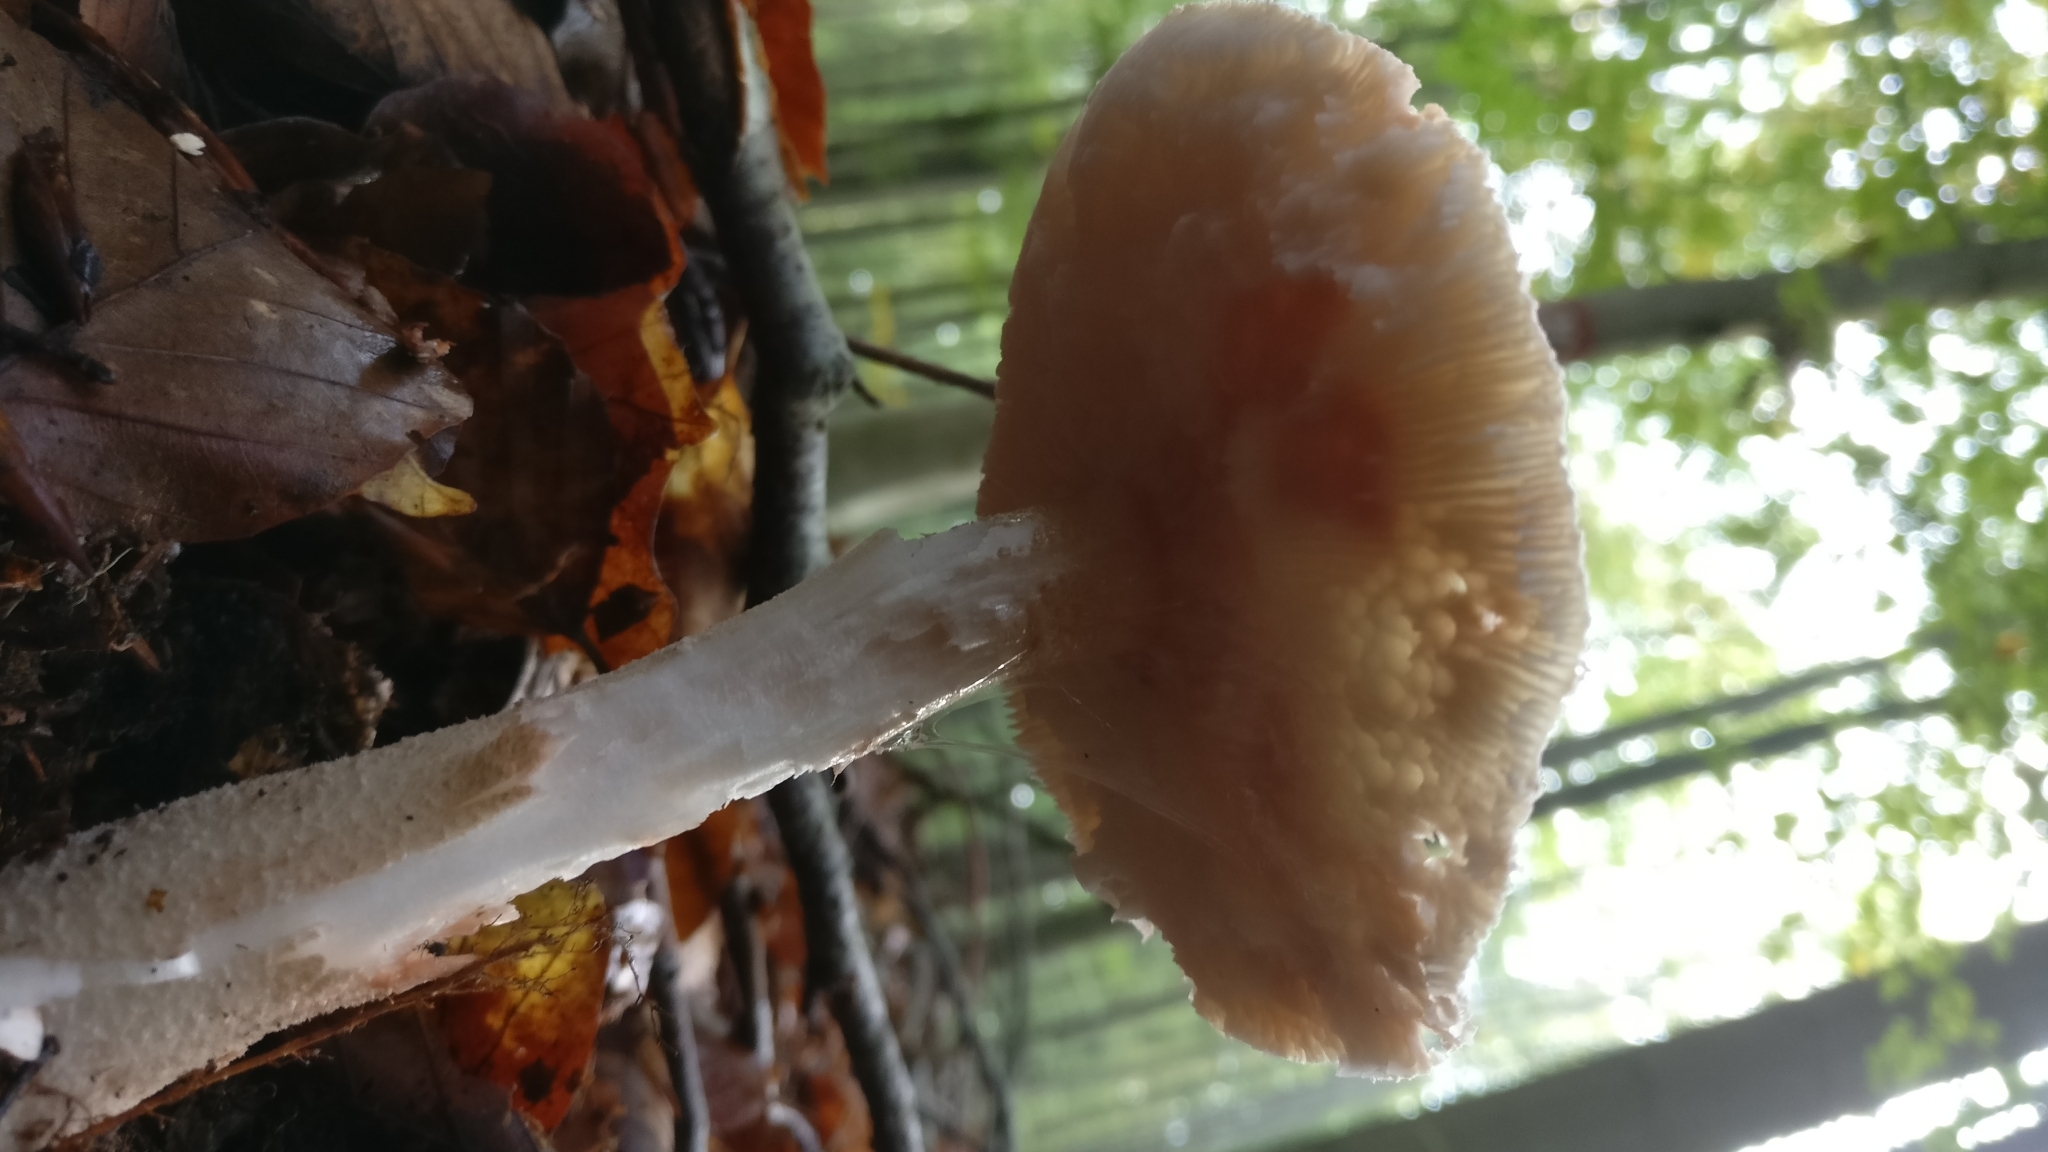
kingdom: Fungi
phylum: Basidiomycota
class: Agaricomycetes
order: Agaricales
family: Amanitaceae
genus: Amanita
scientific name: Amanita rubescens
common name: Blusher
